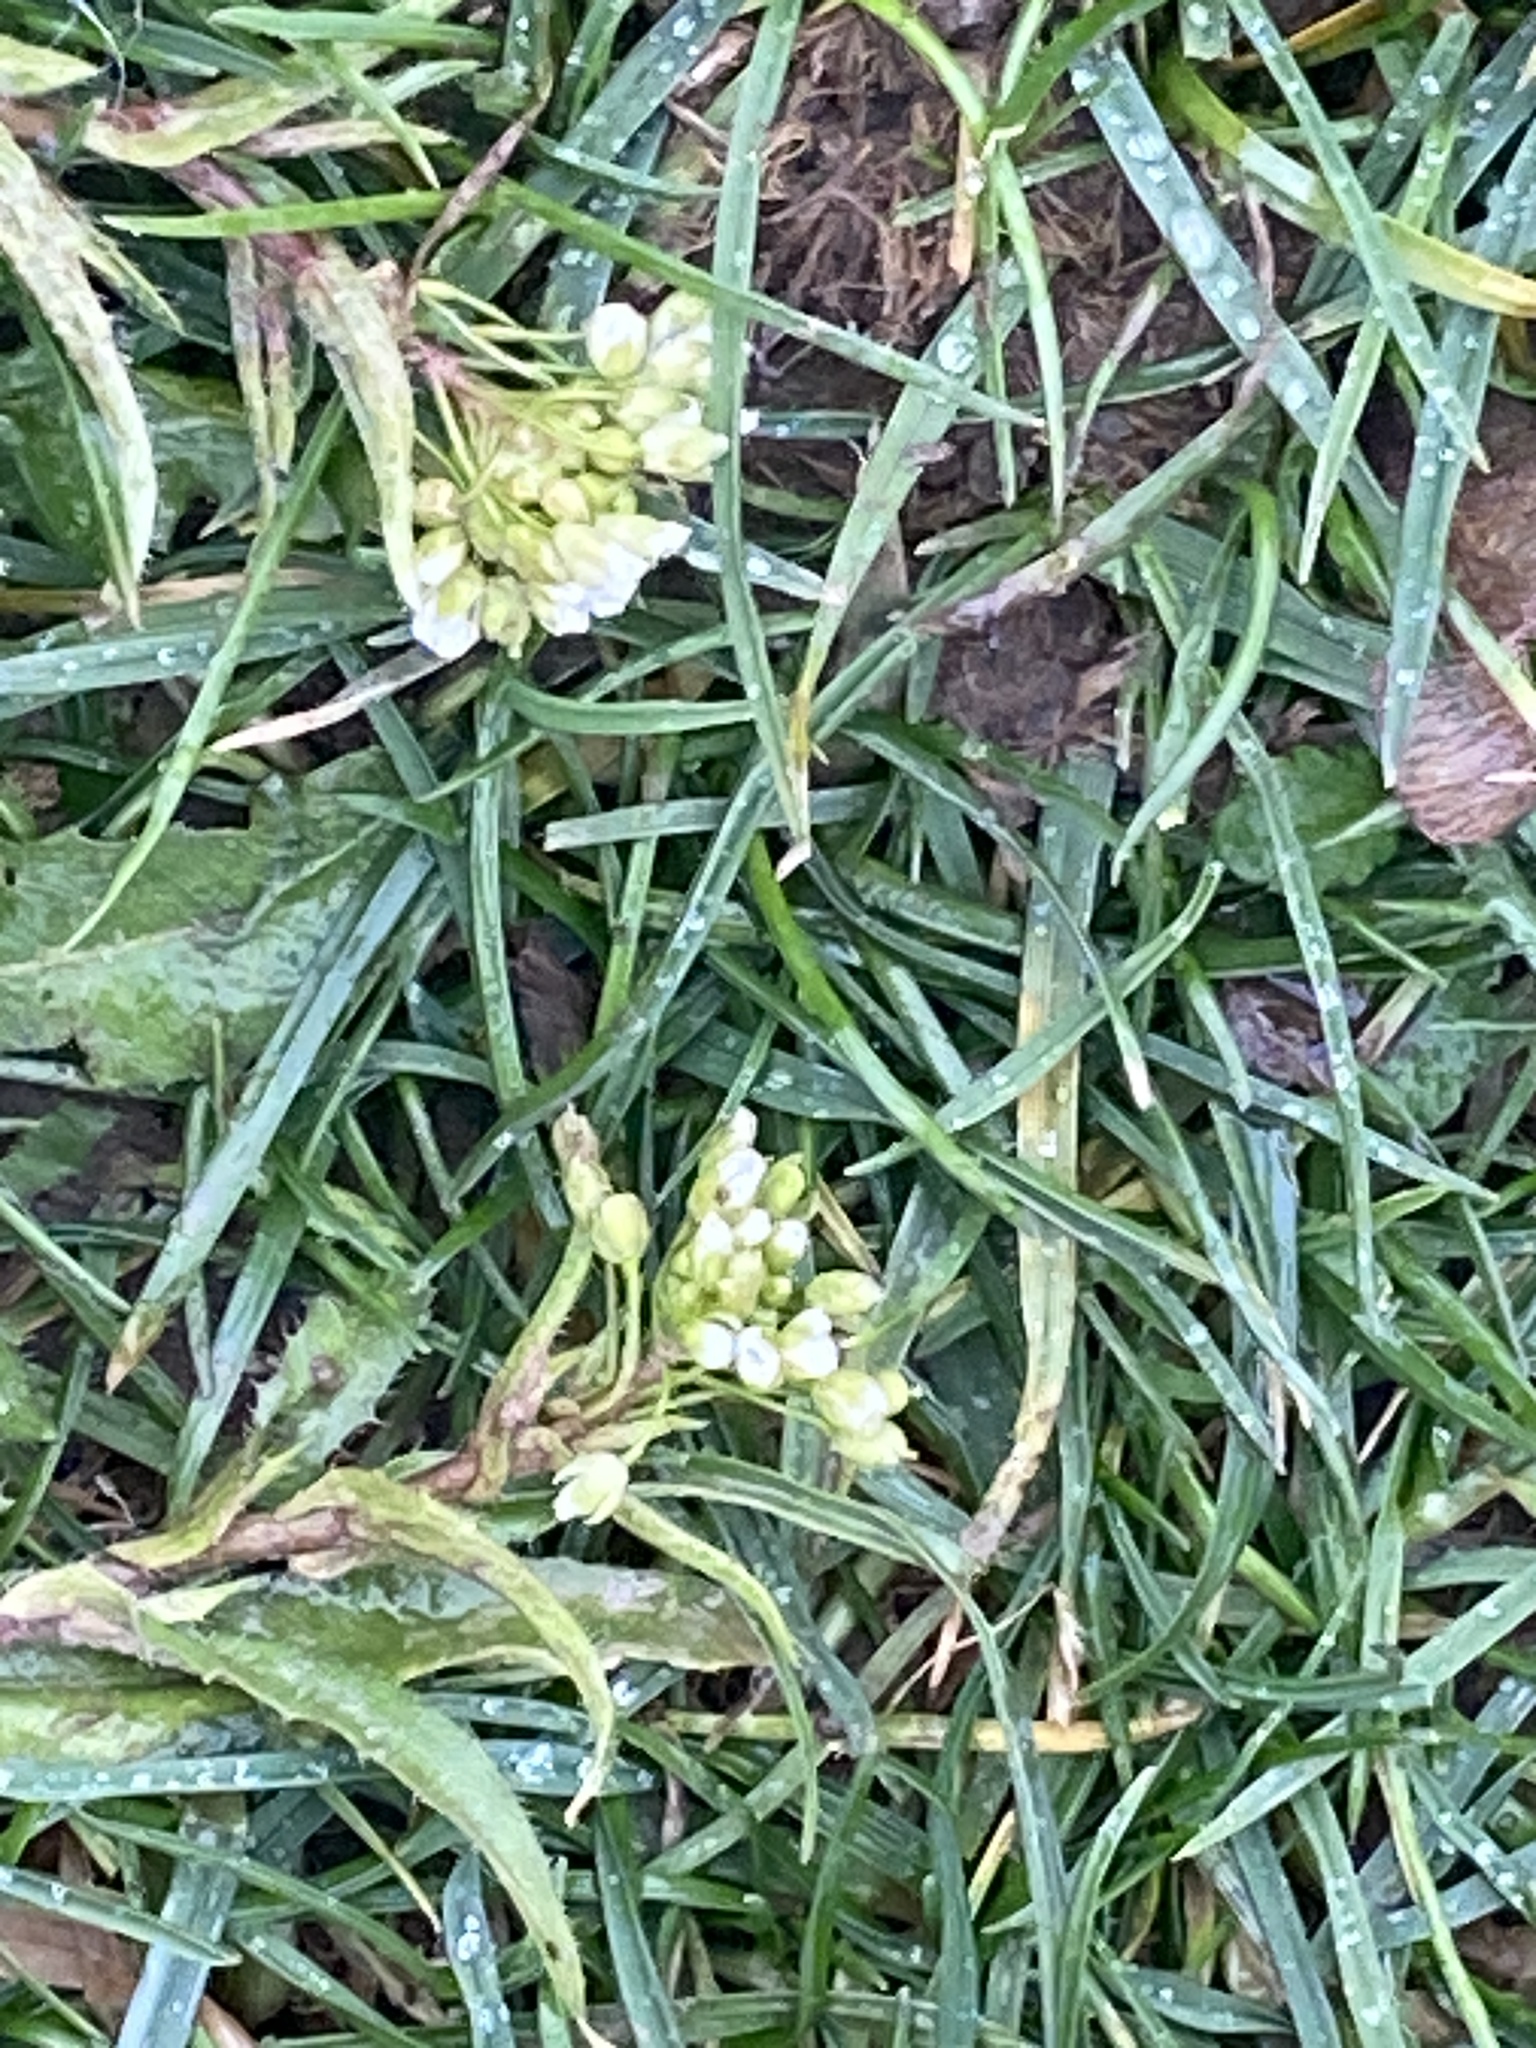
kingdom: Plantae
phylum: Tracheophyta
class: Magnoliopsida
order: Brassicales
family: Brassicaceae
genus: Capsella
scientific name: Capsella bursa-pastoris
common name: Shepherd's purse
